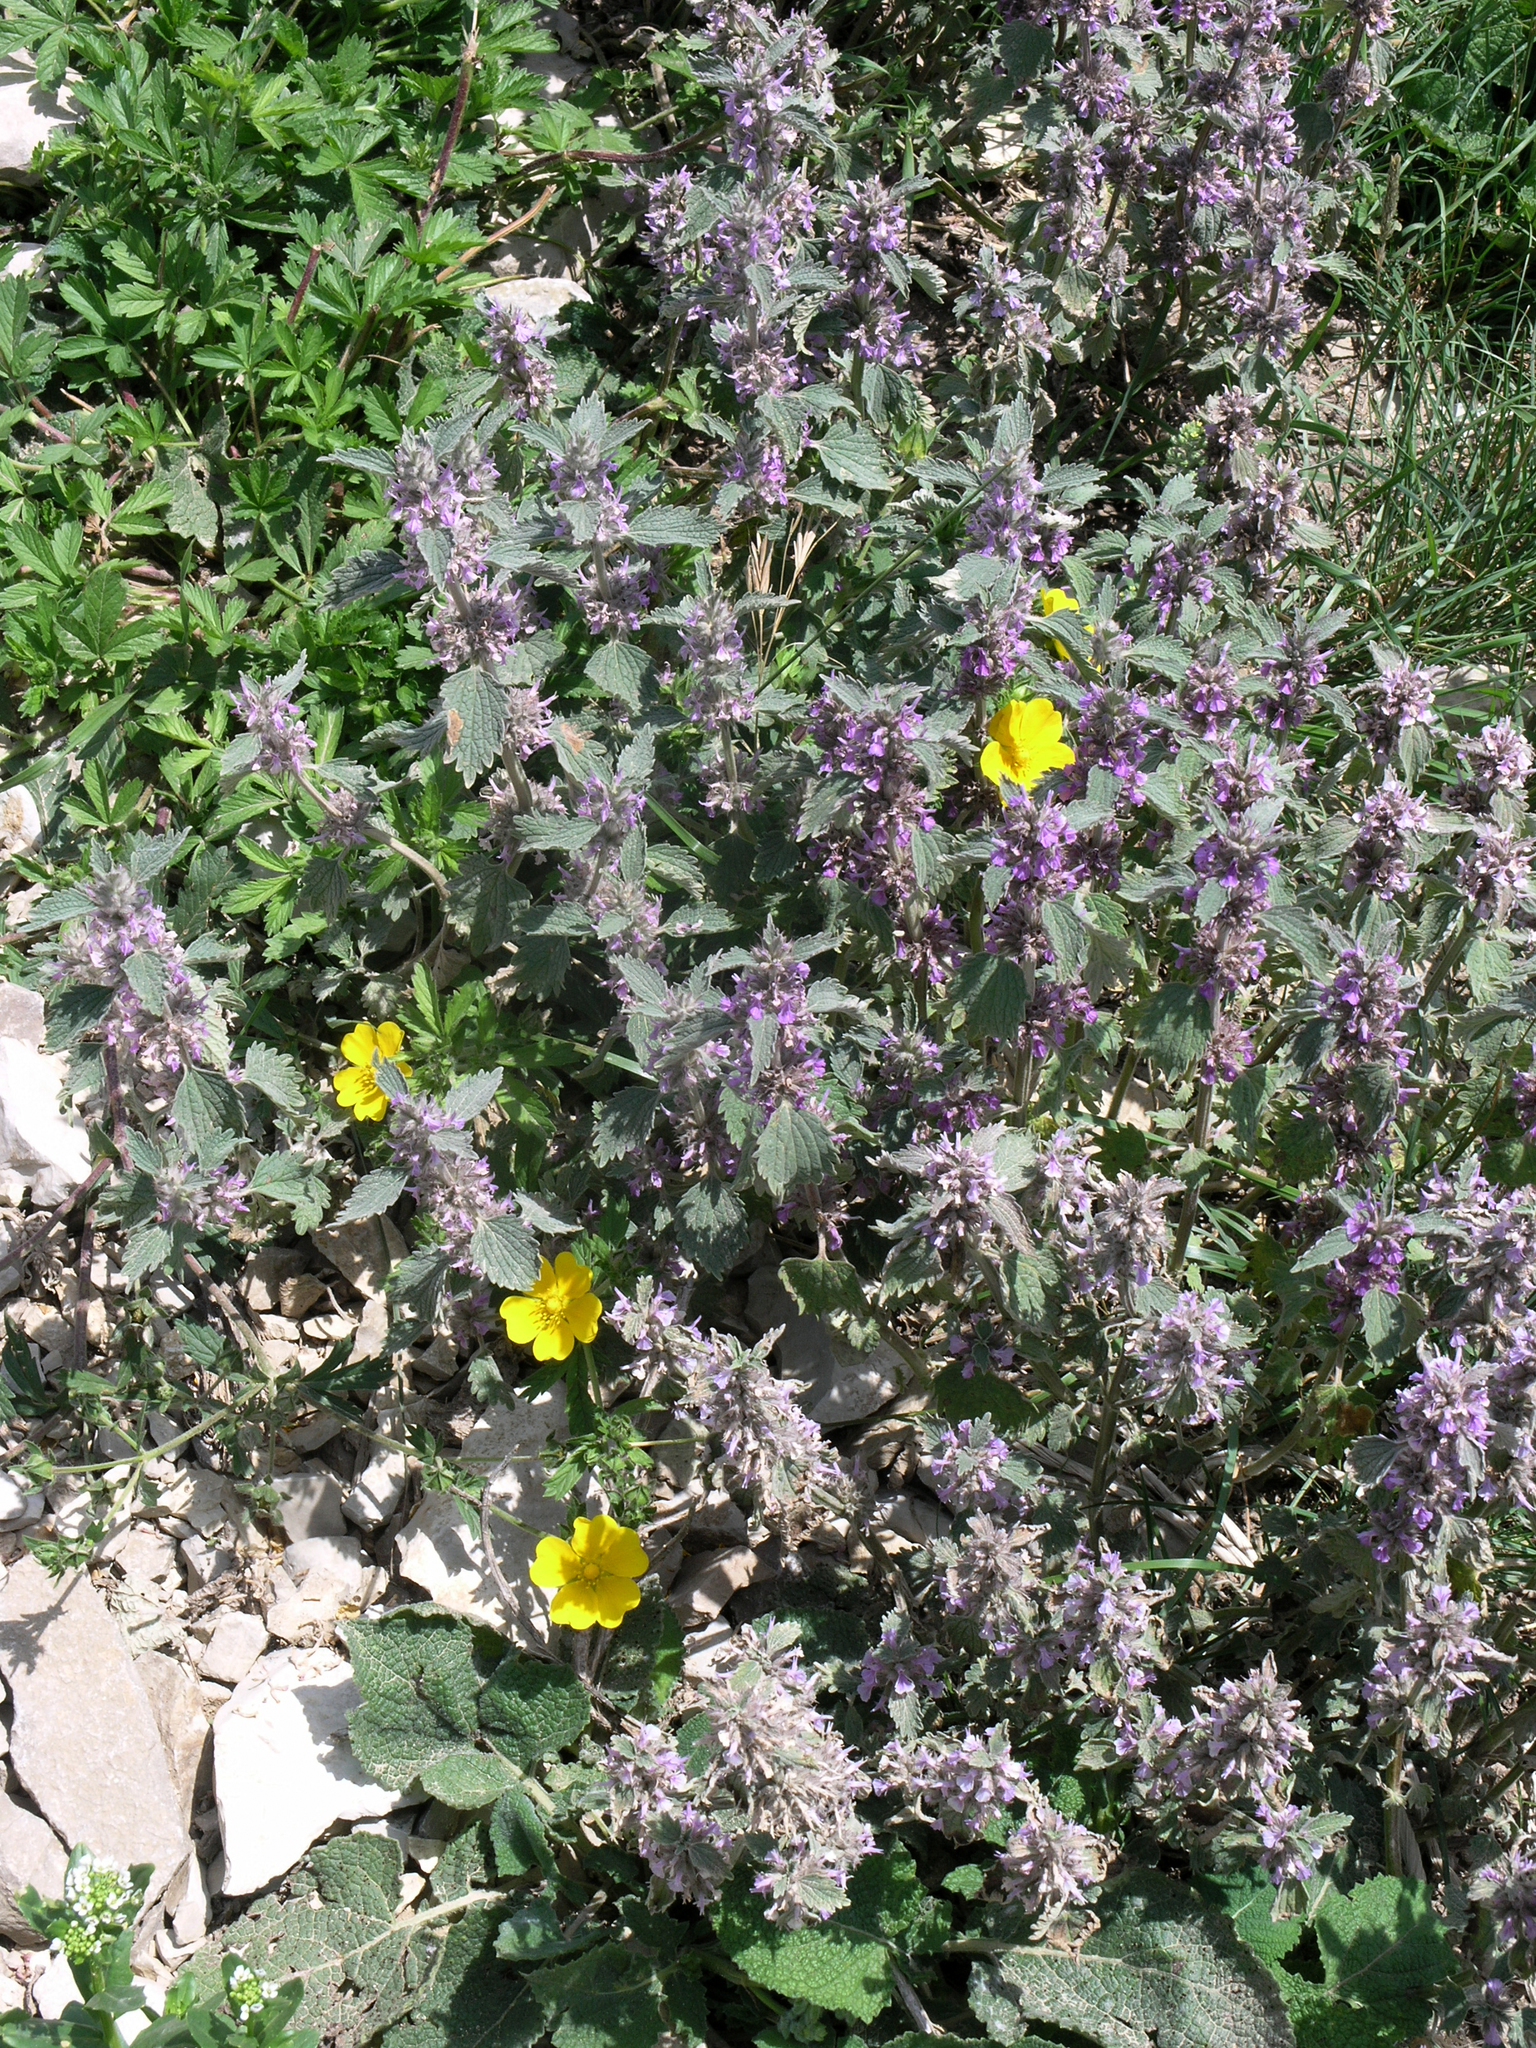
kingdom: Plantae
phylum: Tracheophyta
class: Magnoliopsida
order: Lamiales
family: Lamiaceae
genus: Marrubium
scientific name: Marrubium plumosum
